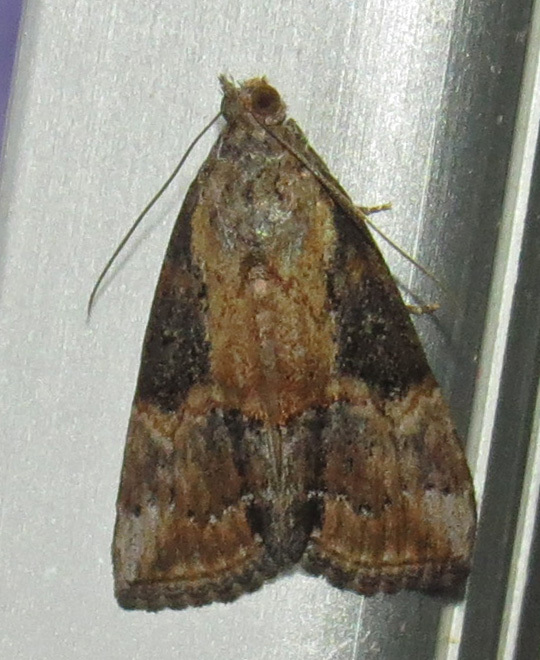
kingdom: Animalia
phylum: Arthropoda
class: Insecta
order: Lepidoptera
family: Erebidae
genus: Hypena
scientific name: Hypena scabra
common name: Green cloverworm
